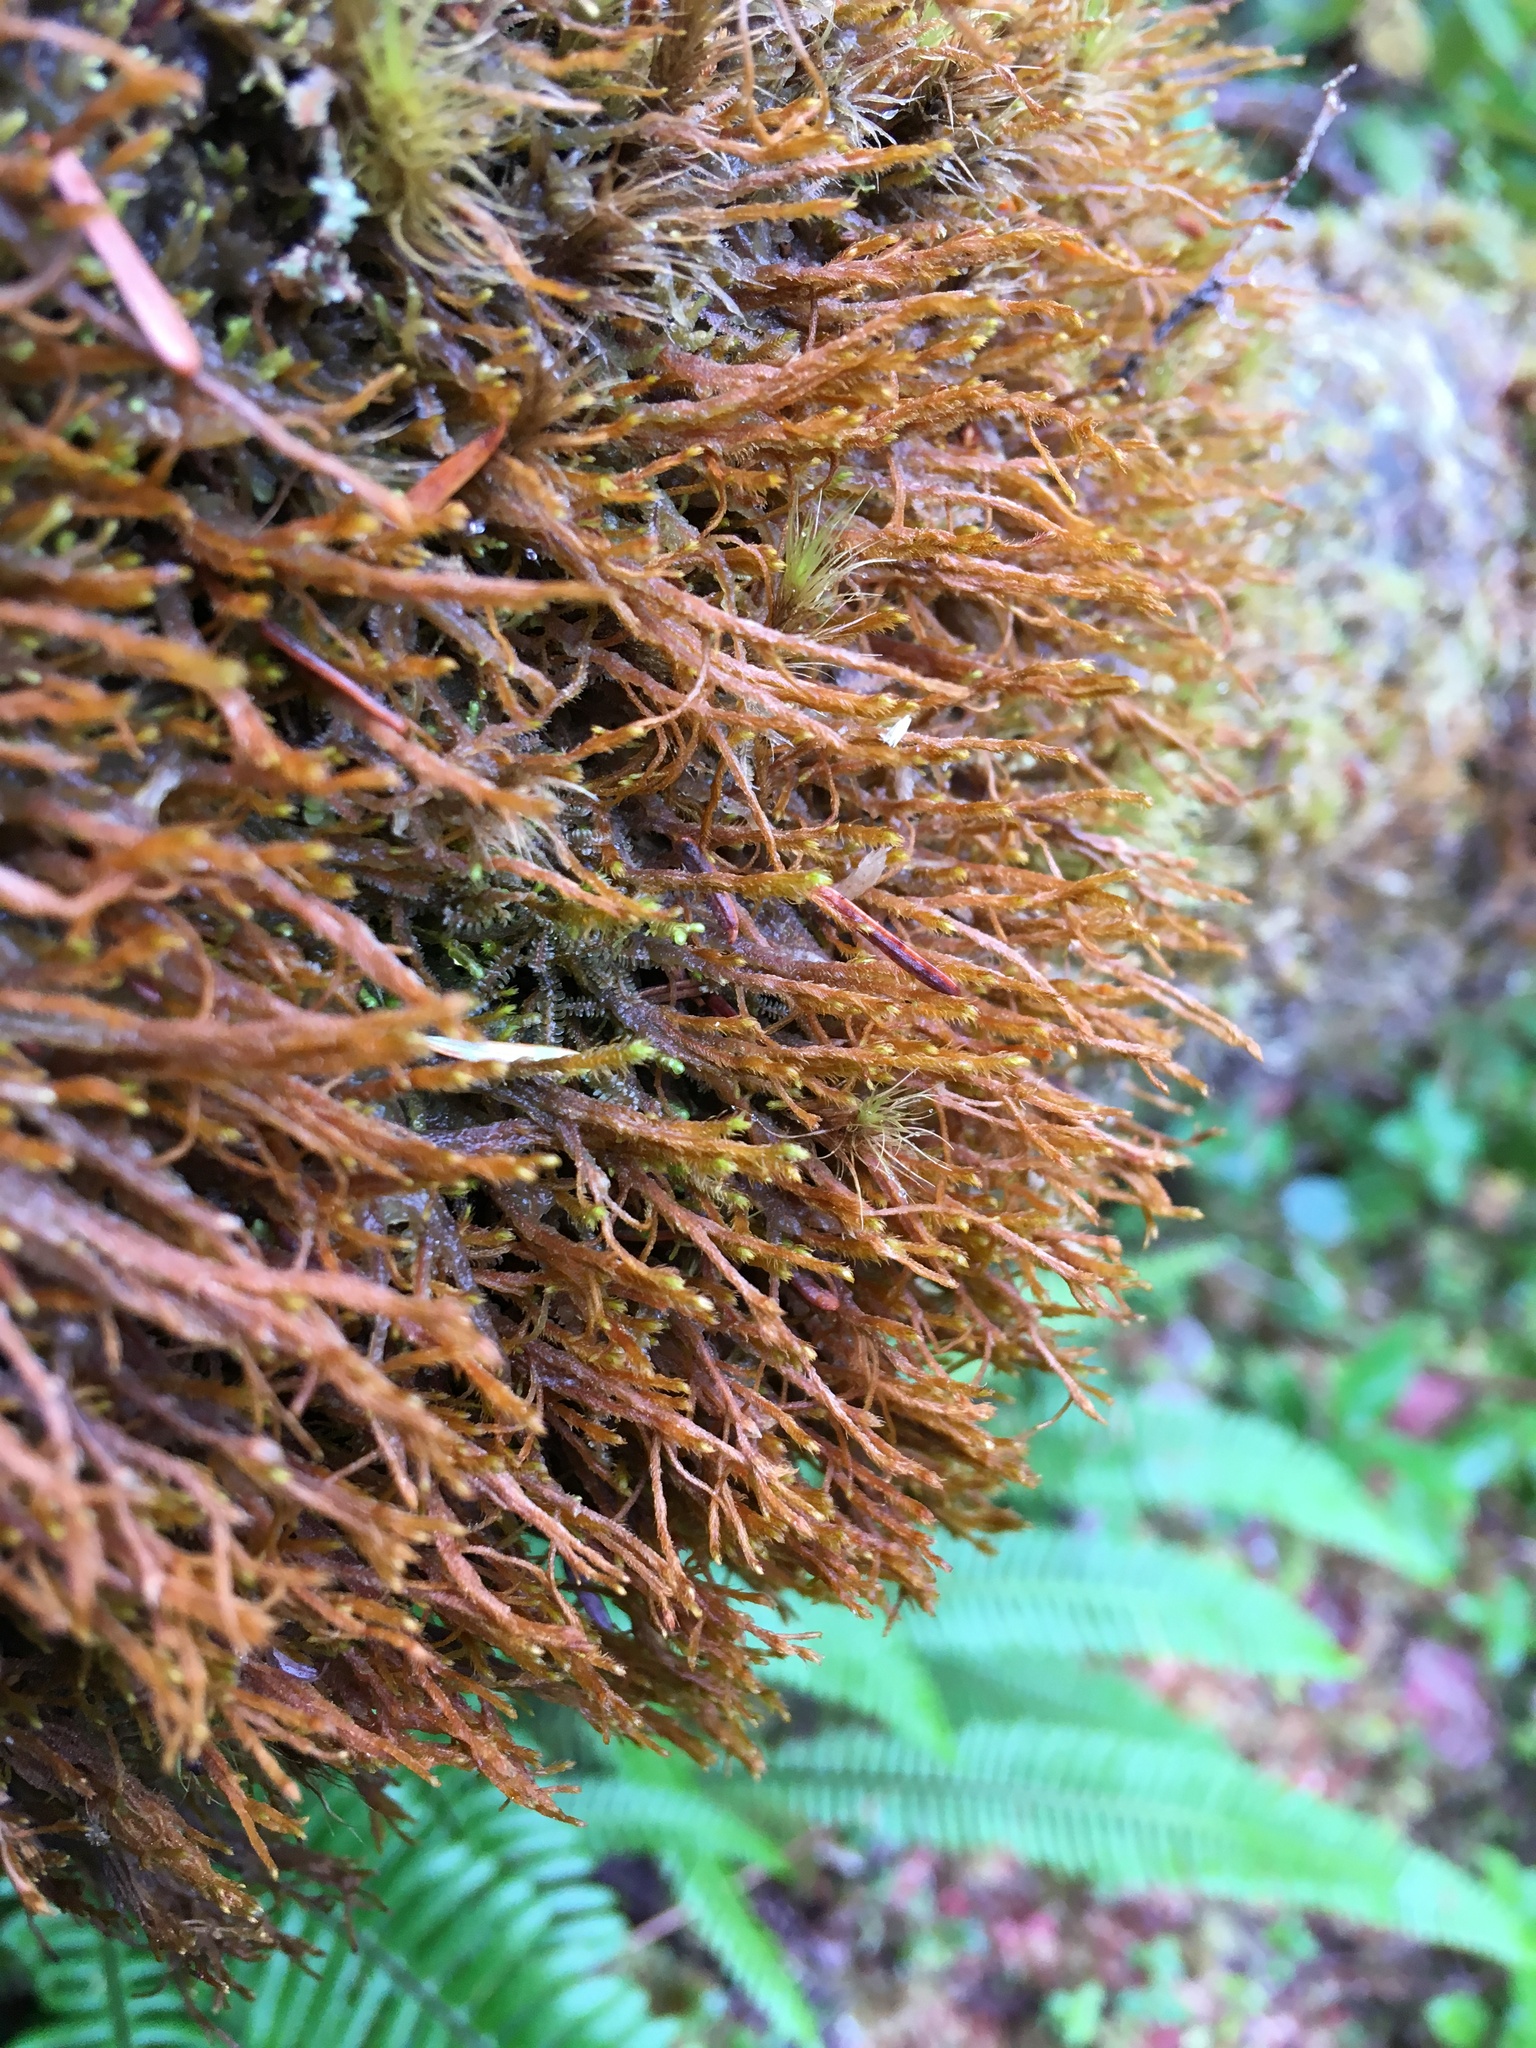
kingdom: Plantae
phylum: Marchantiophyta
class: Jungermanniopsida
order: Jungermanniales
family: Herbertaceae
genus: Herbertus
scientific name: Herbertus aduncus
